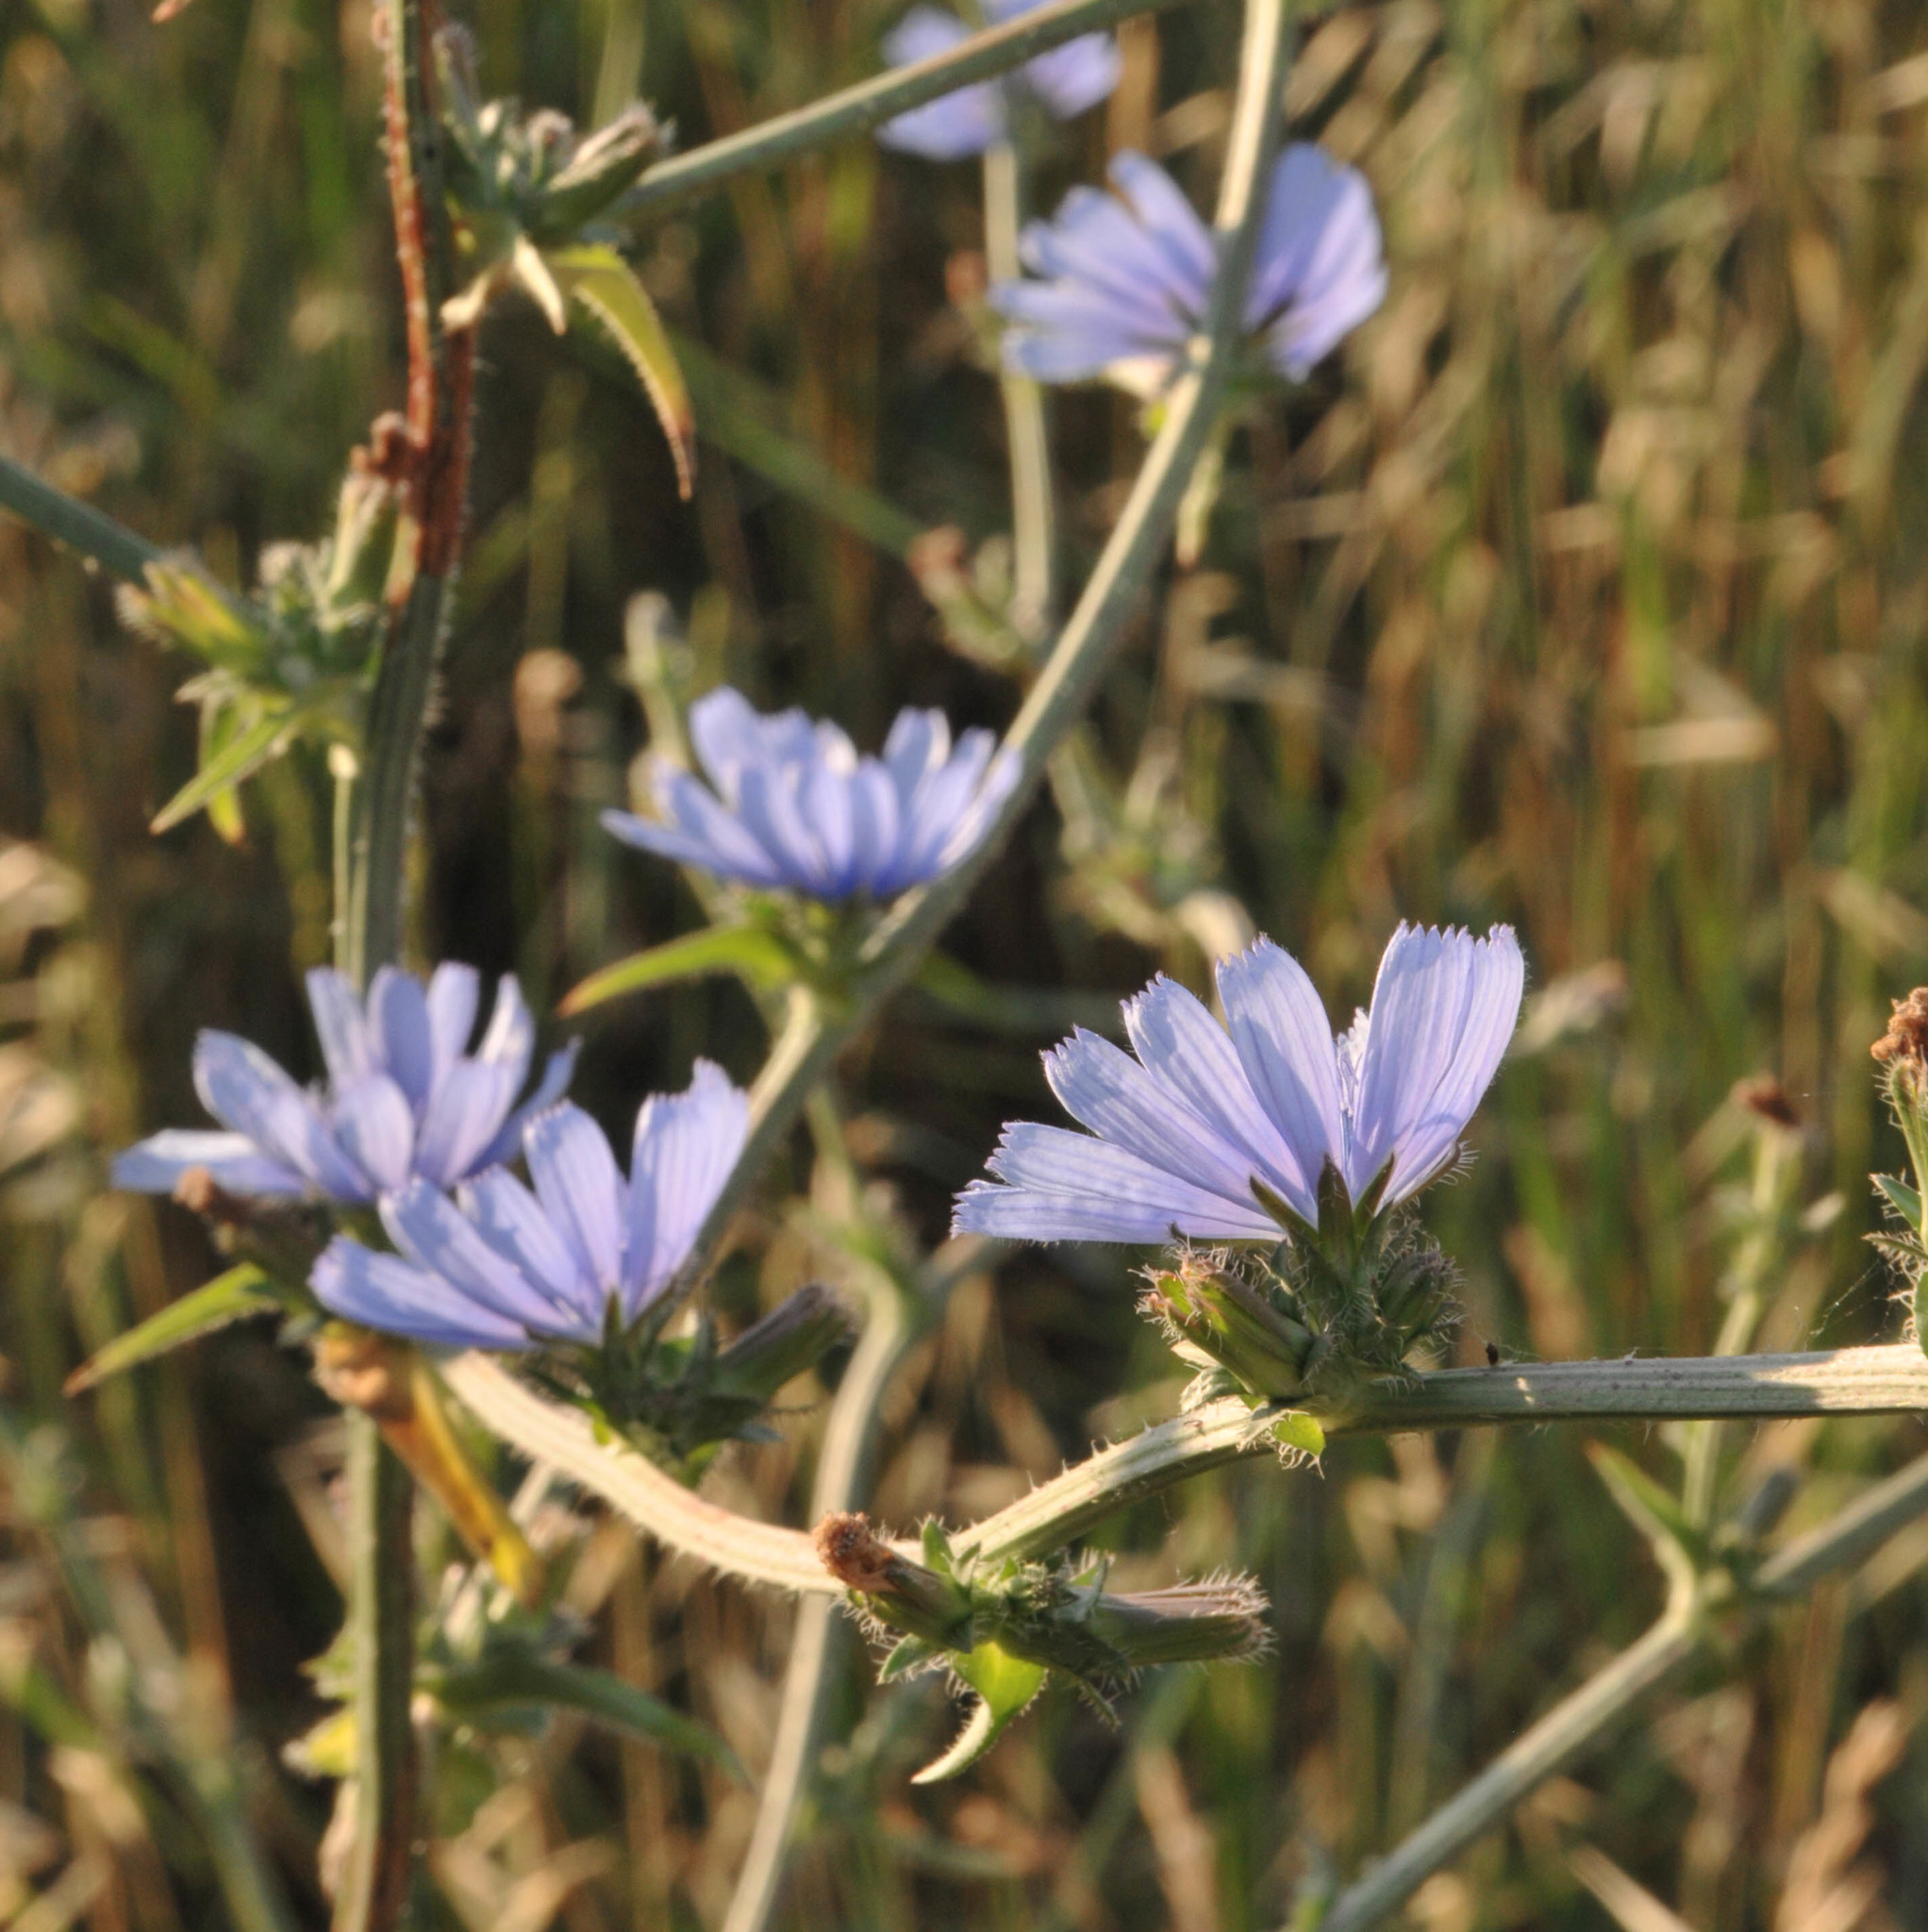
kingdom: Plantae
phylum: Tracheophyta
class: Magnoliopsida
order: Asterales
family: Asteraceae
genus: Cichorium
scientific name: Cichorium intybus
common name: Chicory
